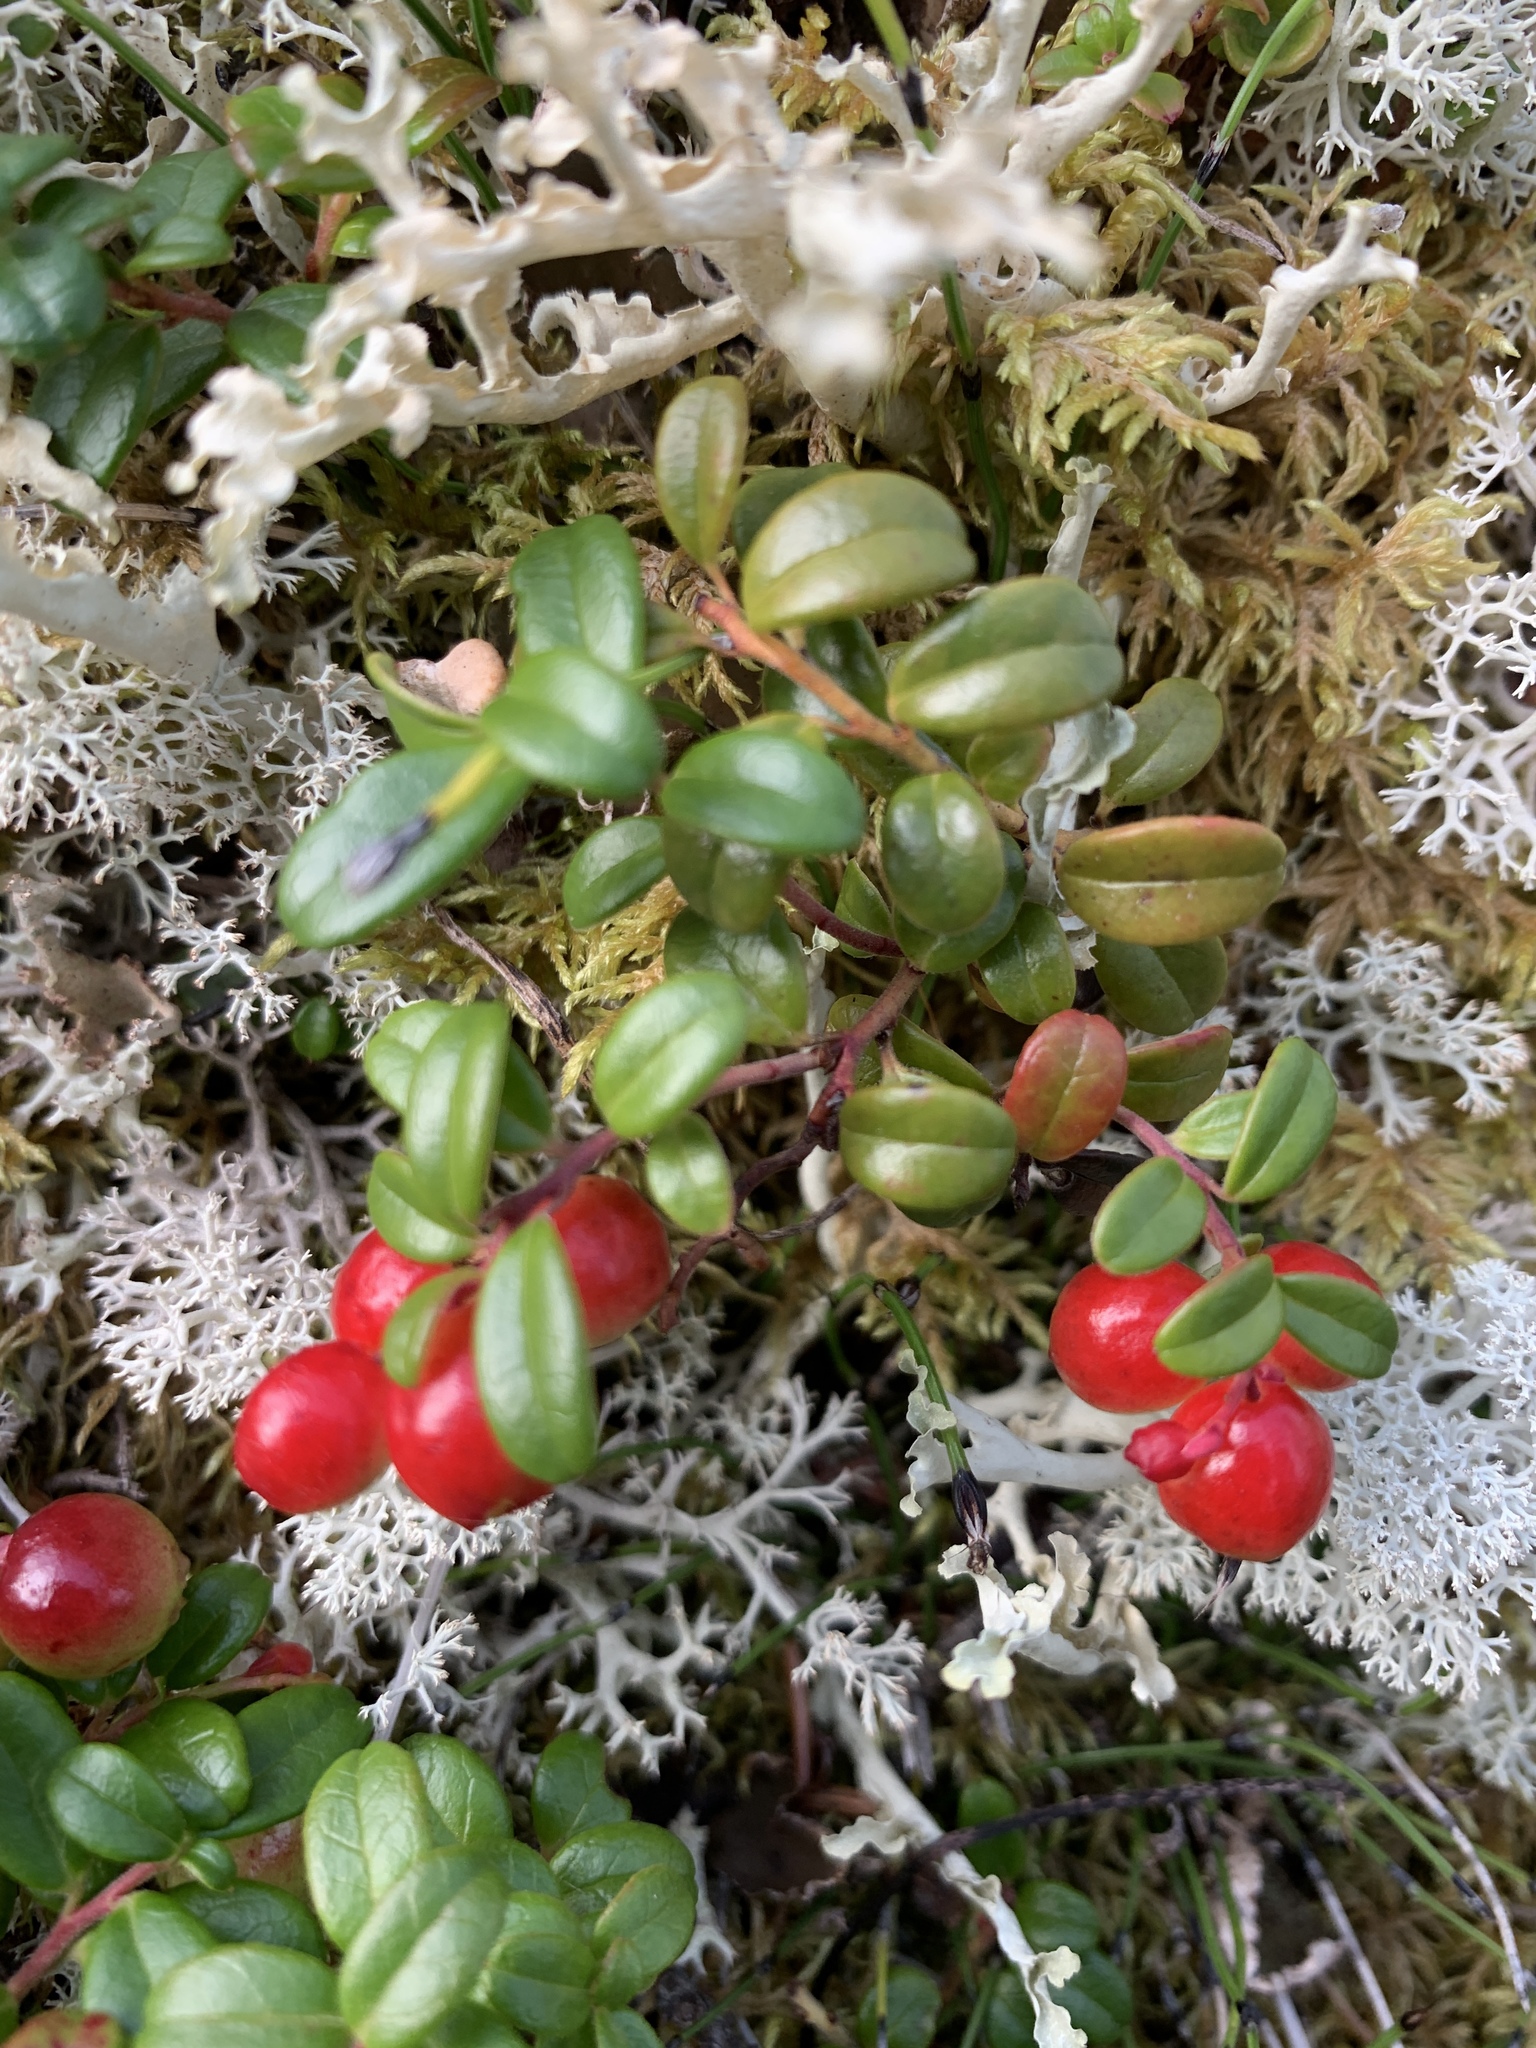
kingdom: Plantae
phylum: Tracheophyta
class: Magnoliopsida
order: Ericales
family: Ericaceae
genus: Vaccinium
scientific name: Vaccinium vitis-idaea
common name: Cowberry
